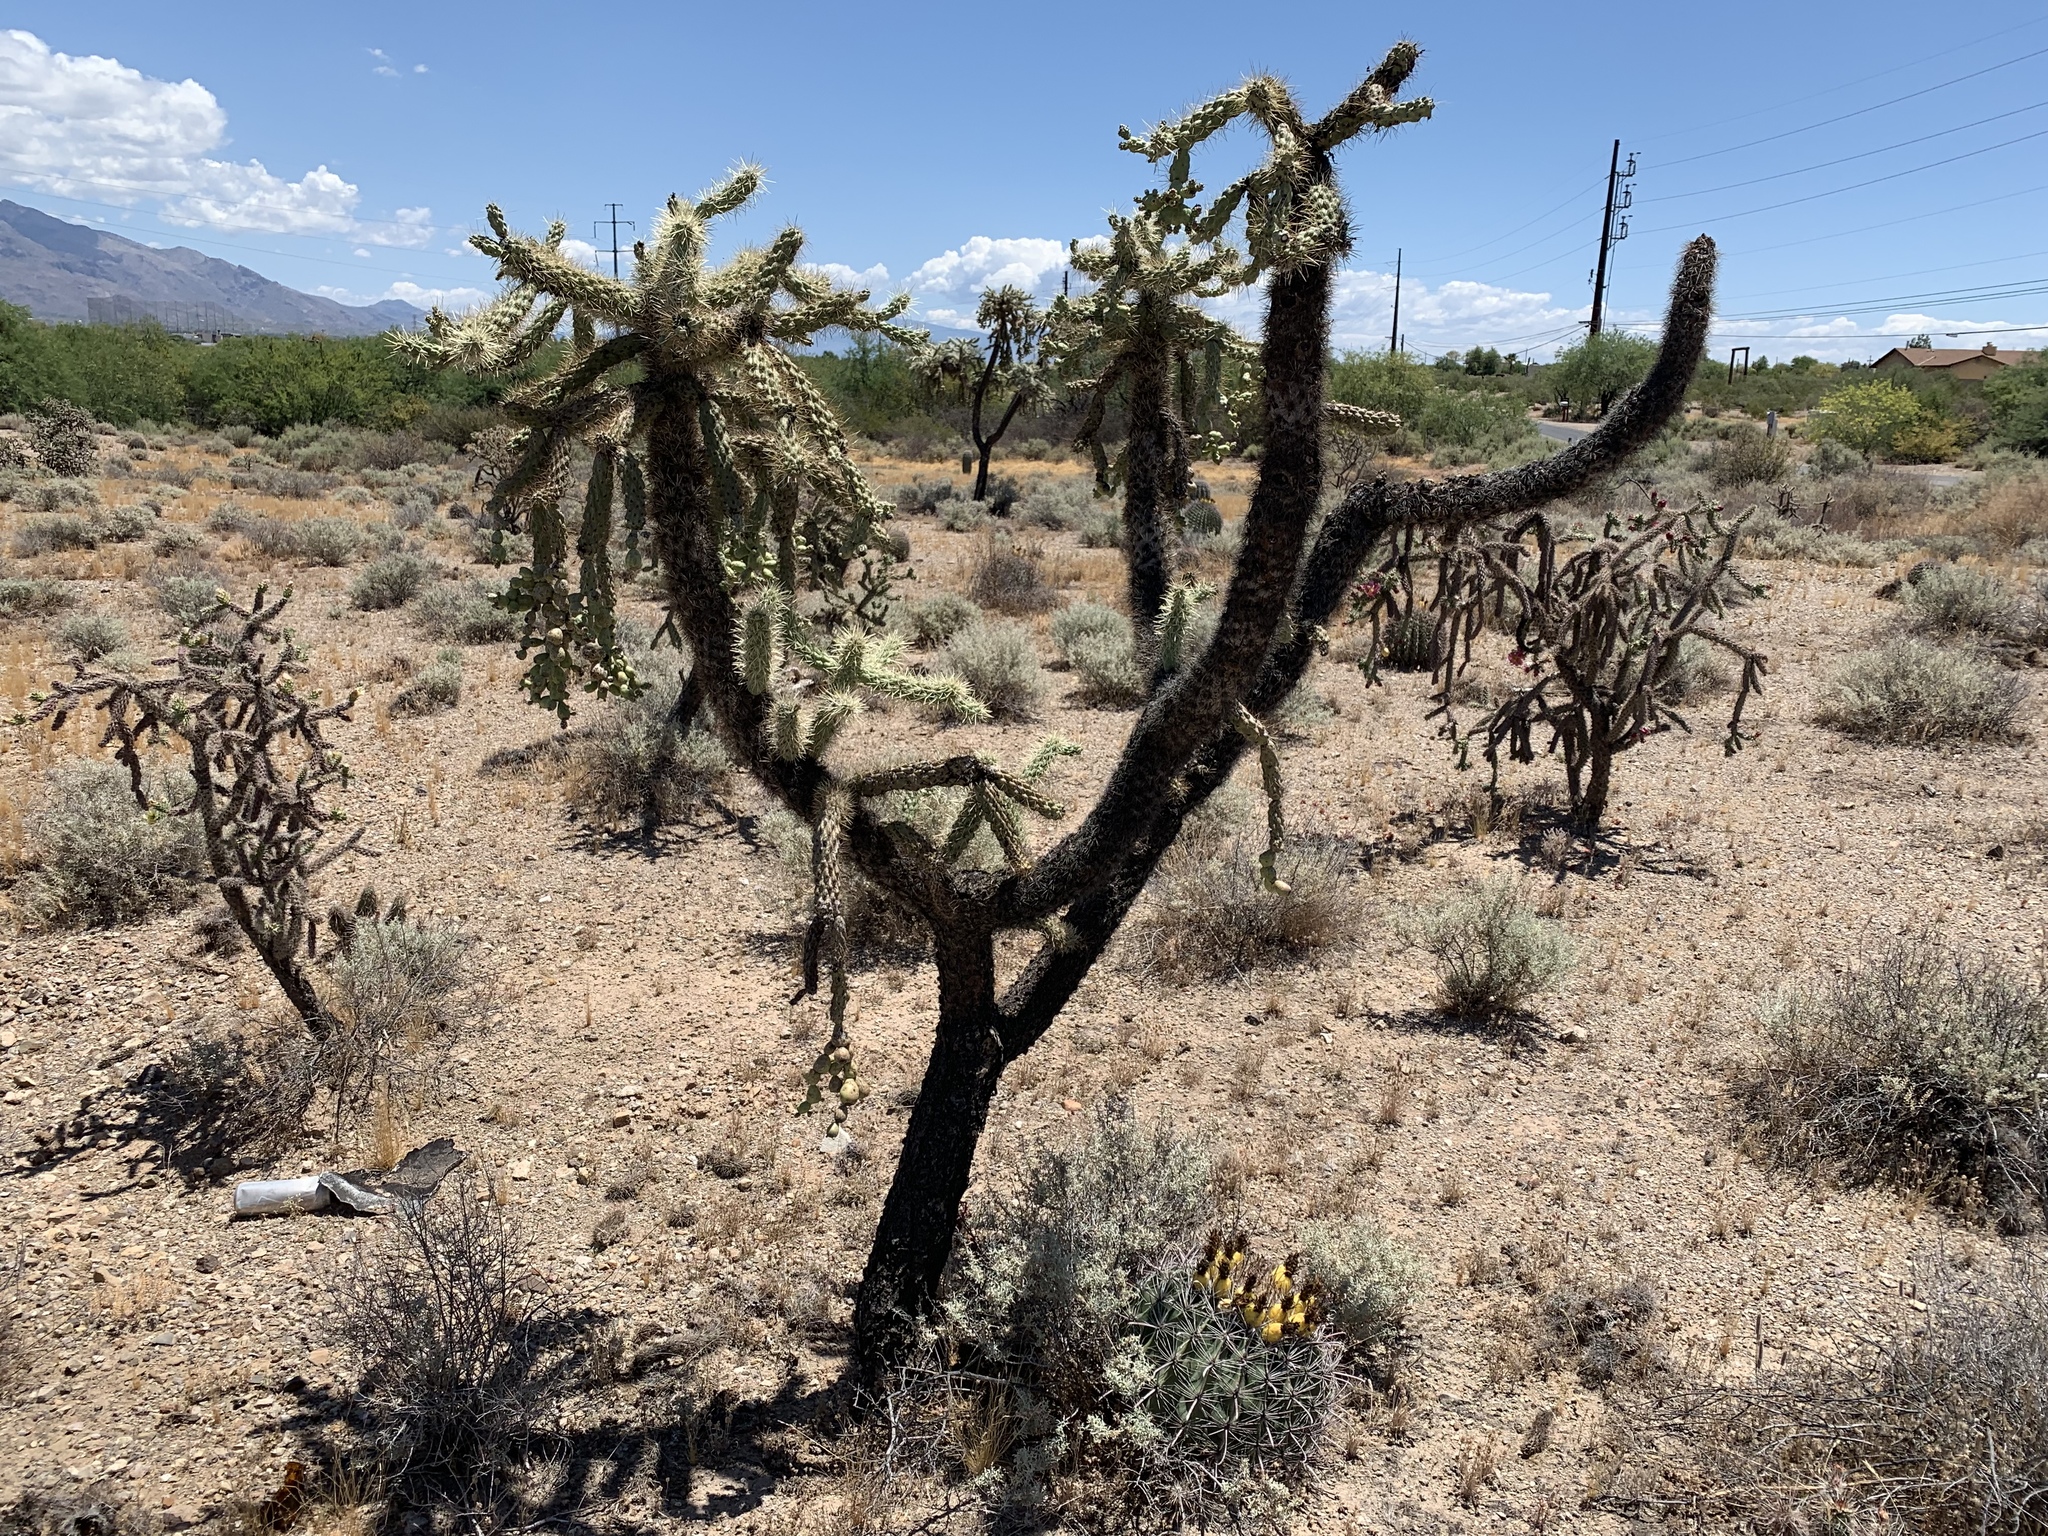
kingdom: Plantae
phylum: Tracheophyta
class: Magnoliopsida
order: Caryophyllales
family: Cactaceae
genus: Cylindropuntia
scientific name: Cylindropuntia fulgida
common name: Jumping cholla
